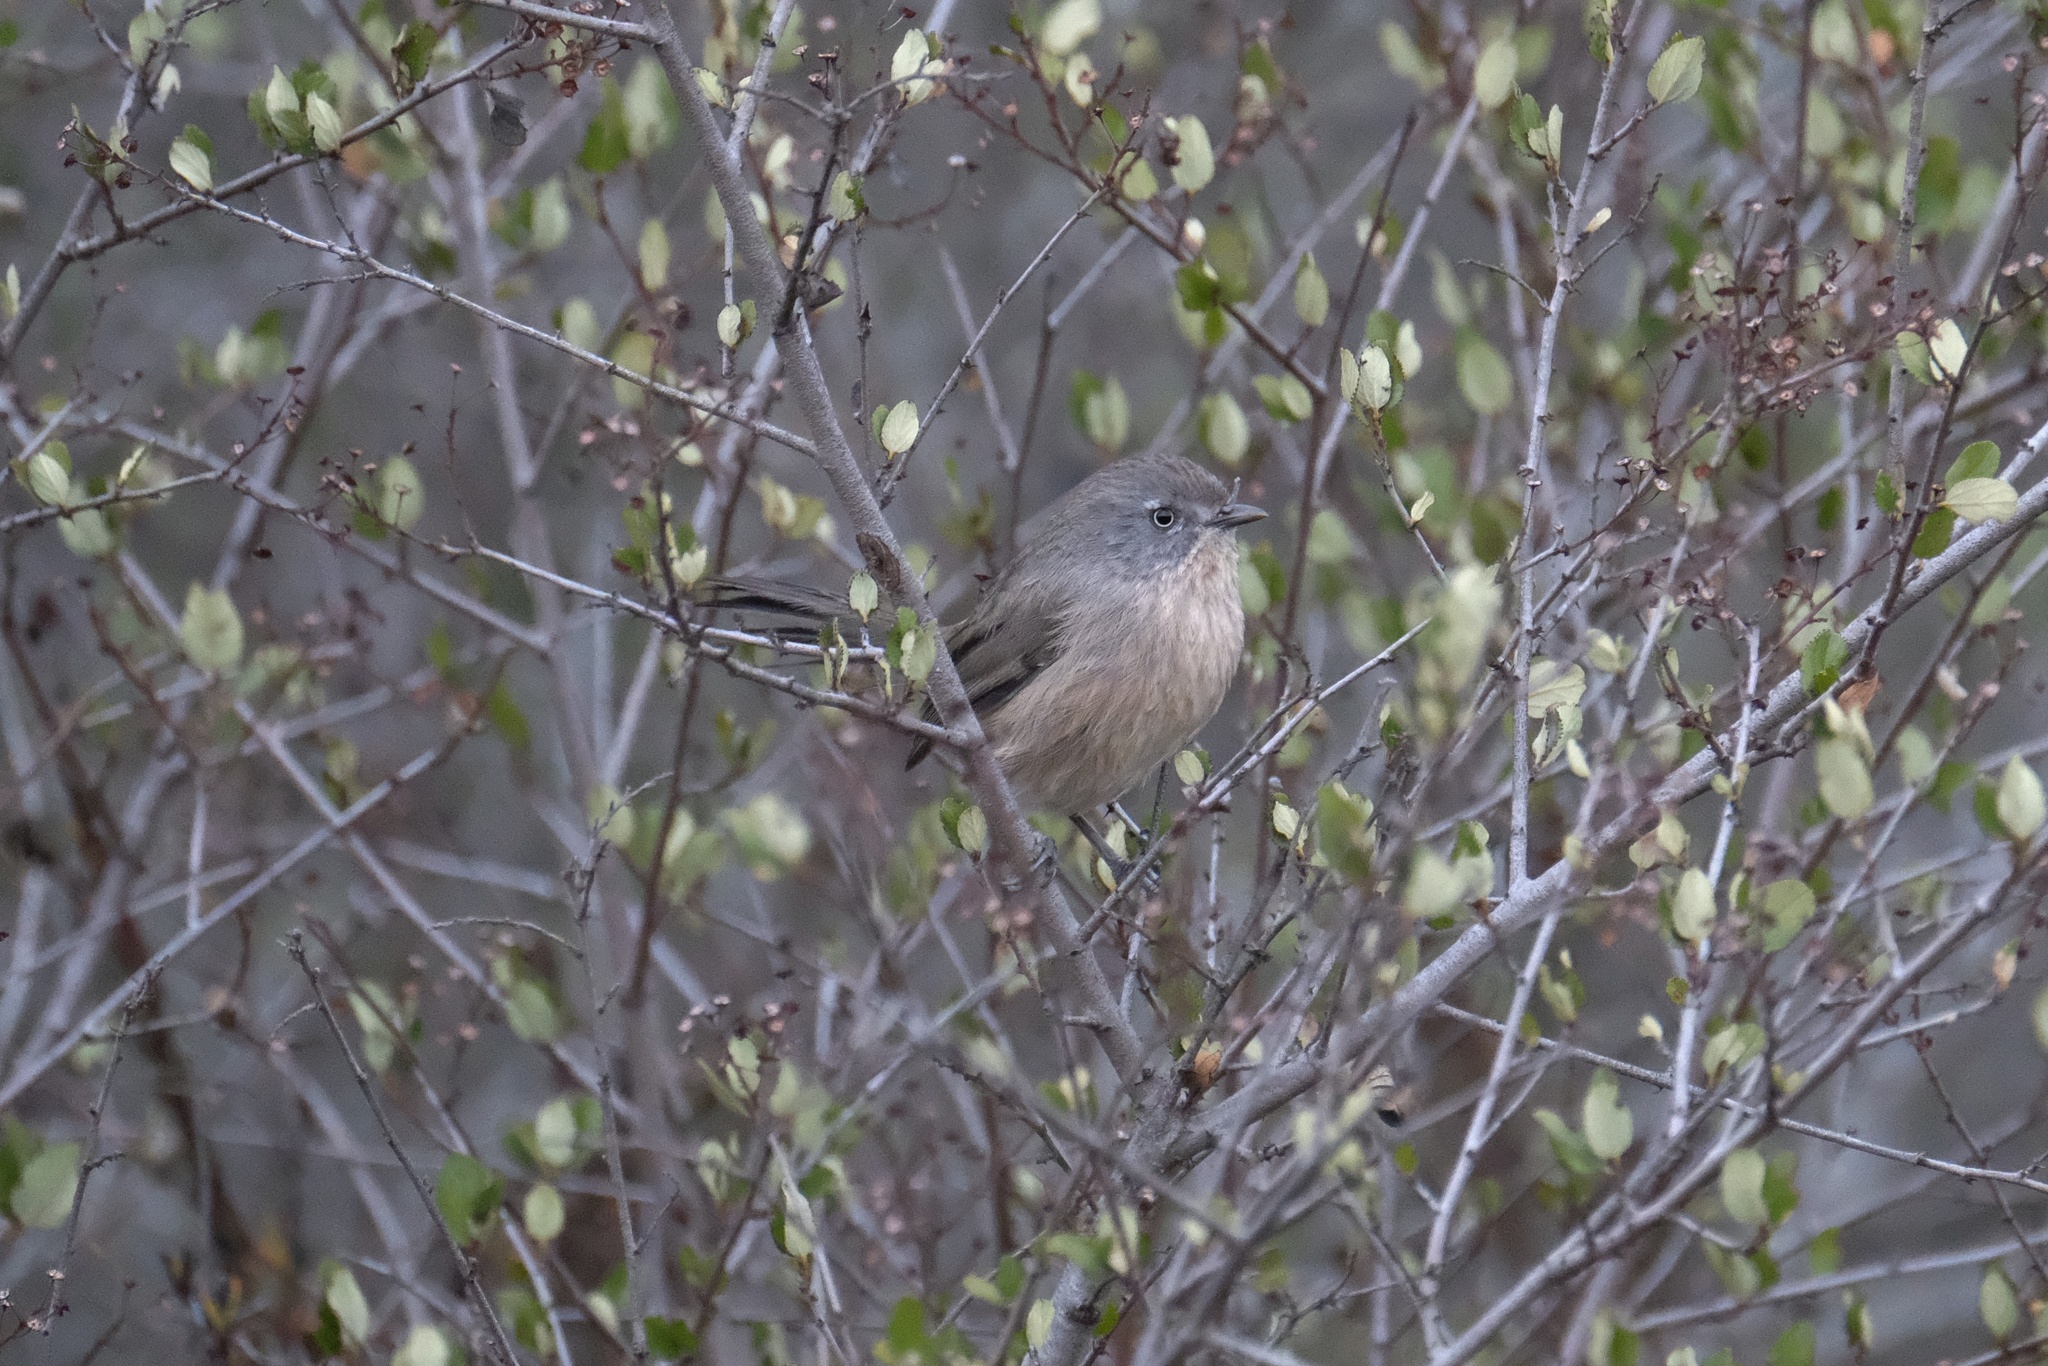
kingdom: Animalia
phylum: Chordata
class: Aves
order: Passeriformes
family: Sylviidae
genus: Chamaea
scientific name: Chamaea fasciata
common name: Wrentit
